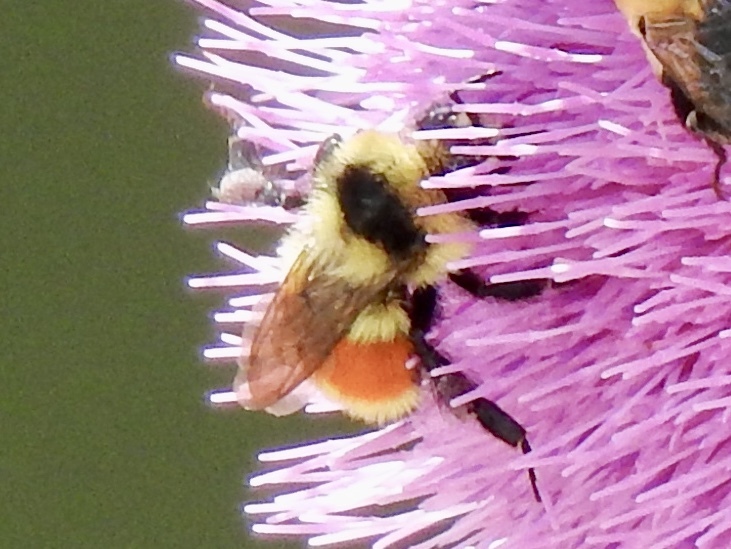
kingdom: Animalia
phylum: Arthropoda
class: Insecta
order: Hymenoptera
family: Apidae
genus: Bombus
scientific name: Bombus huntii
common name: Hunt bumble bee
